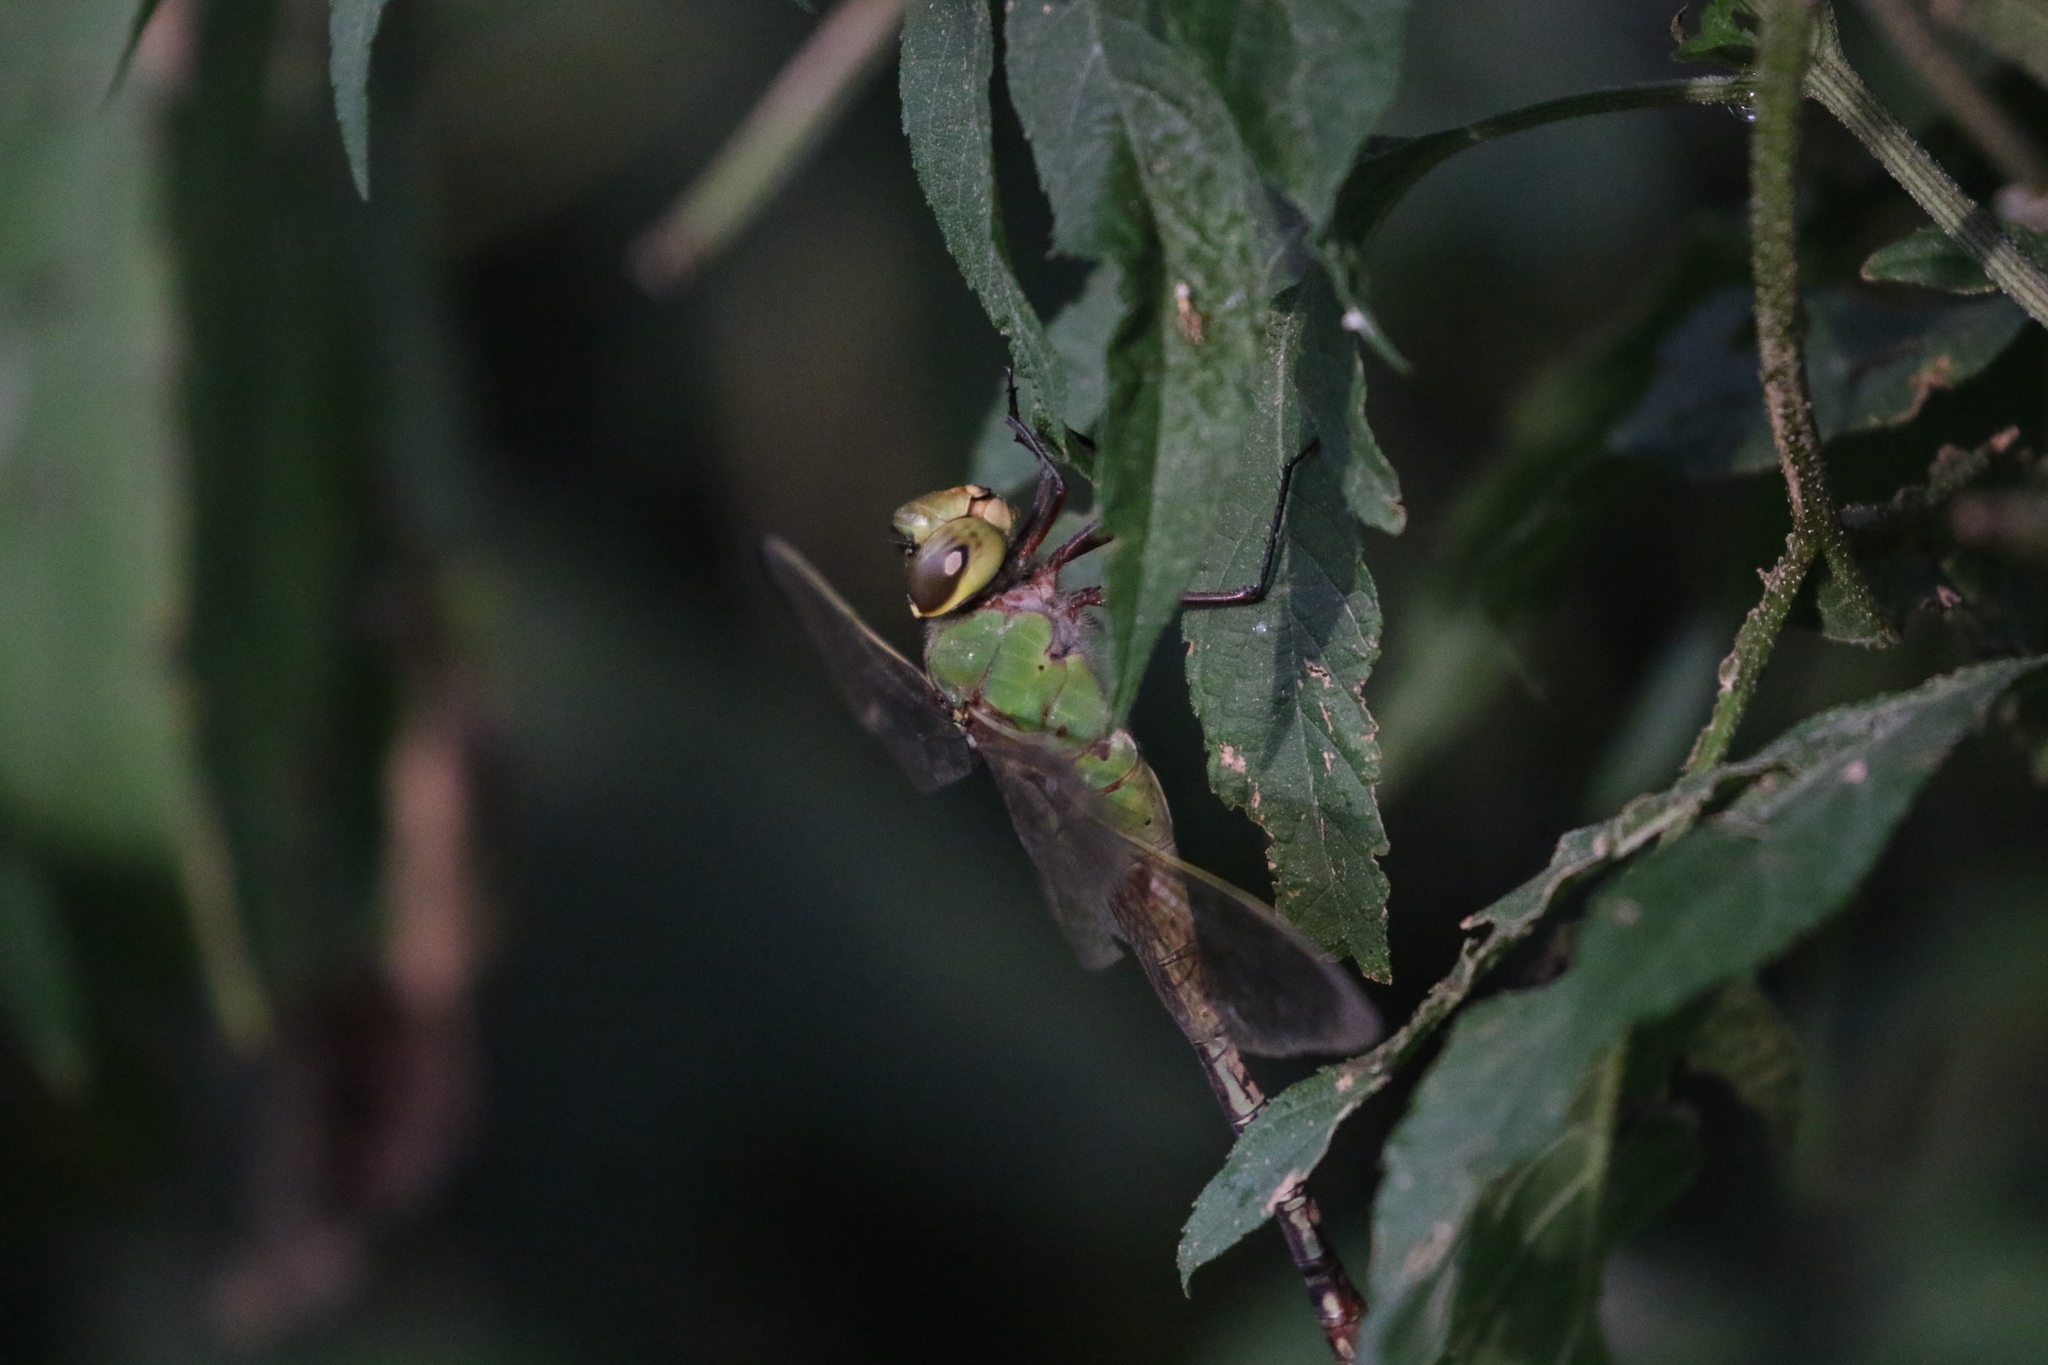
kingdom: Animalia
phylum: Arthropoda
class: Insecta
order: Odonata
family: Aeshnidae
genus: Anax
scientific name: Anax junius
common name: Common green darner
